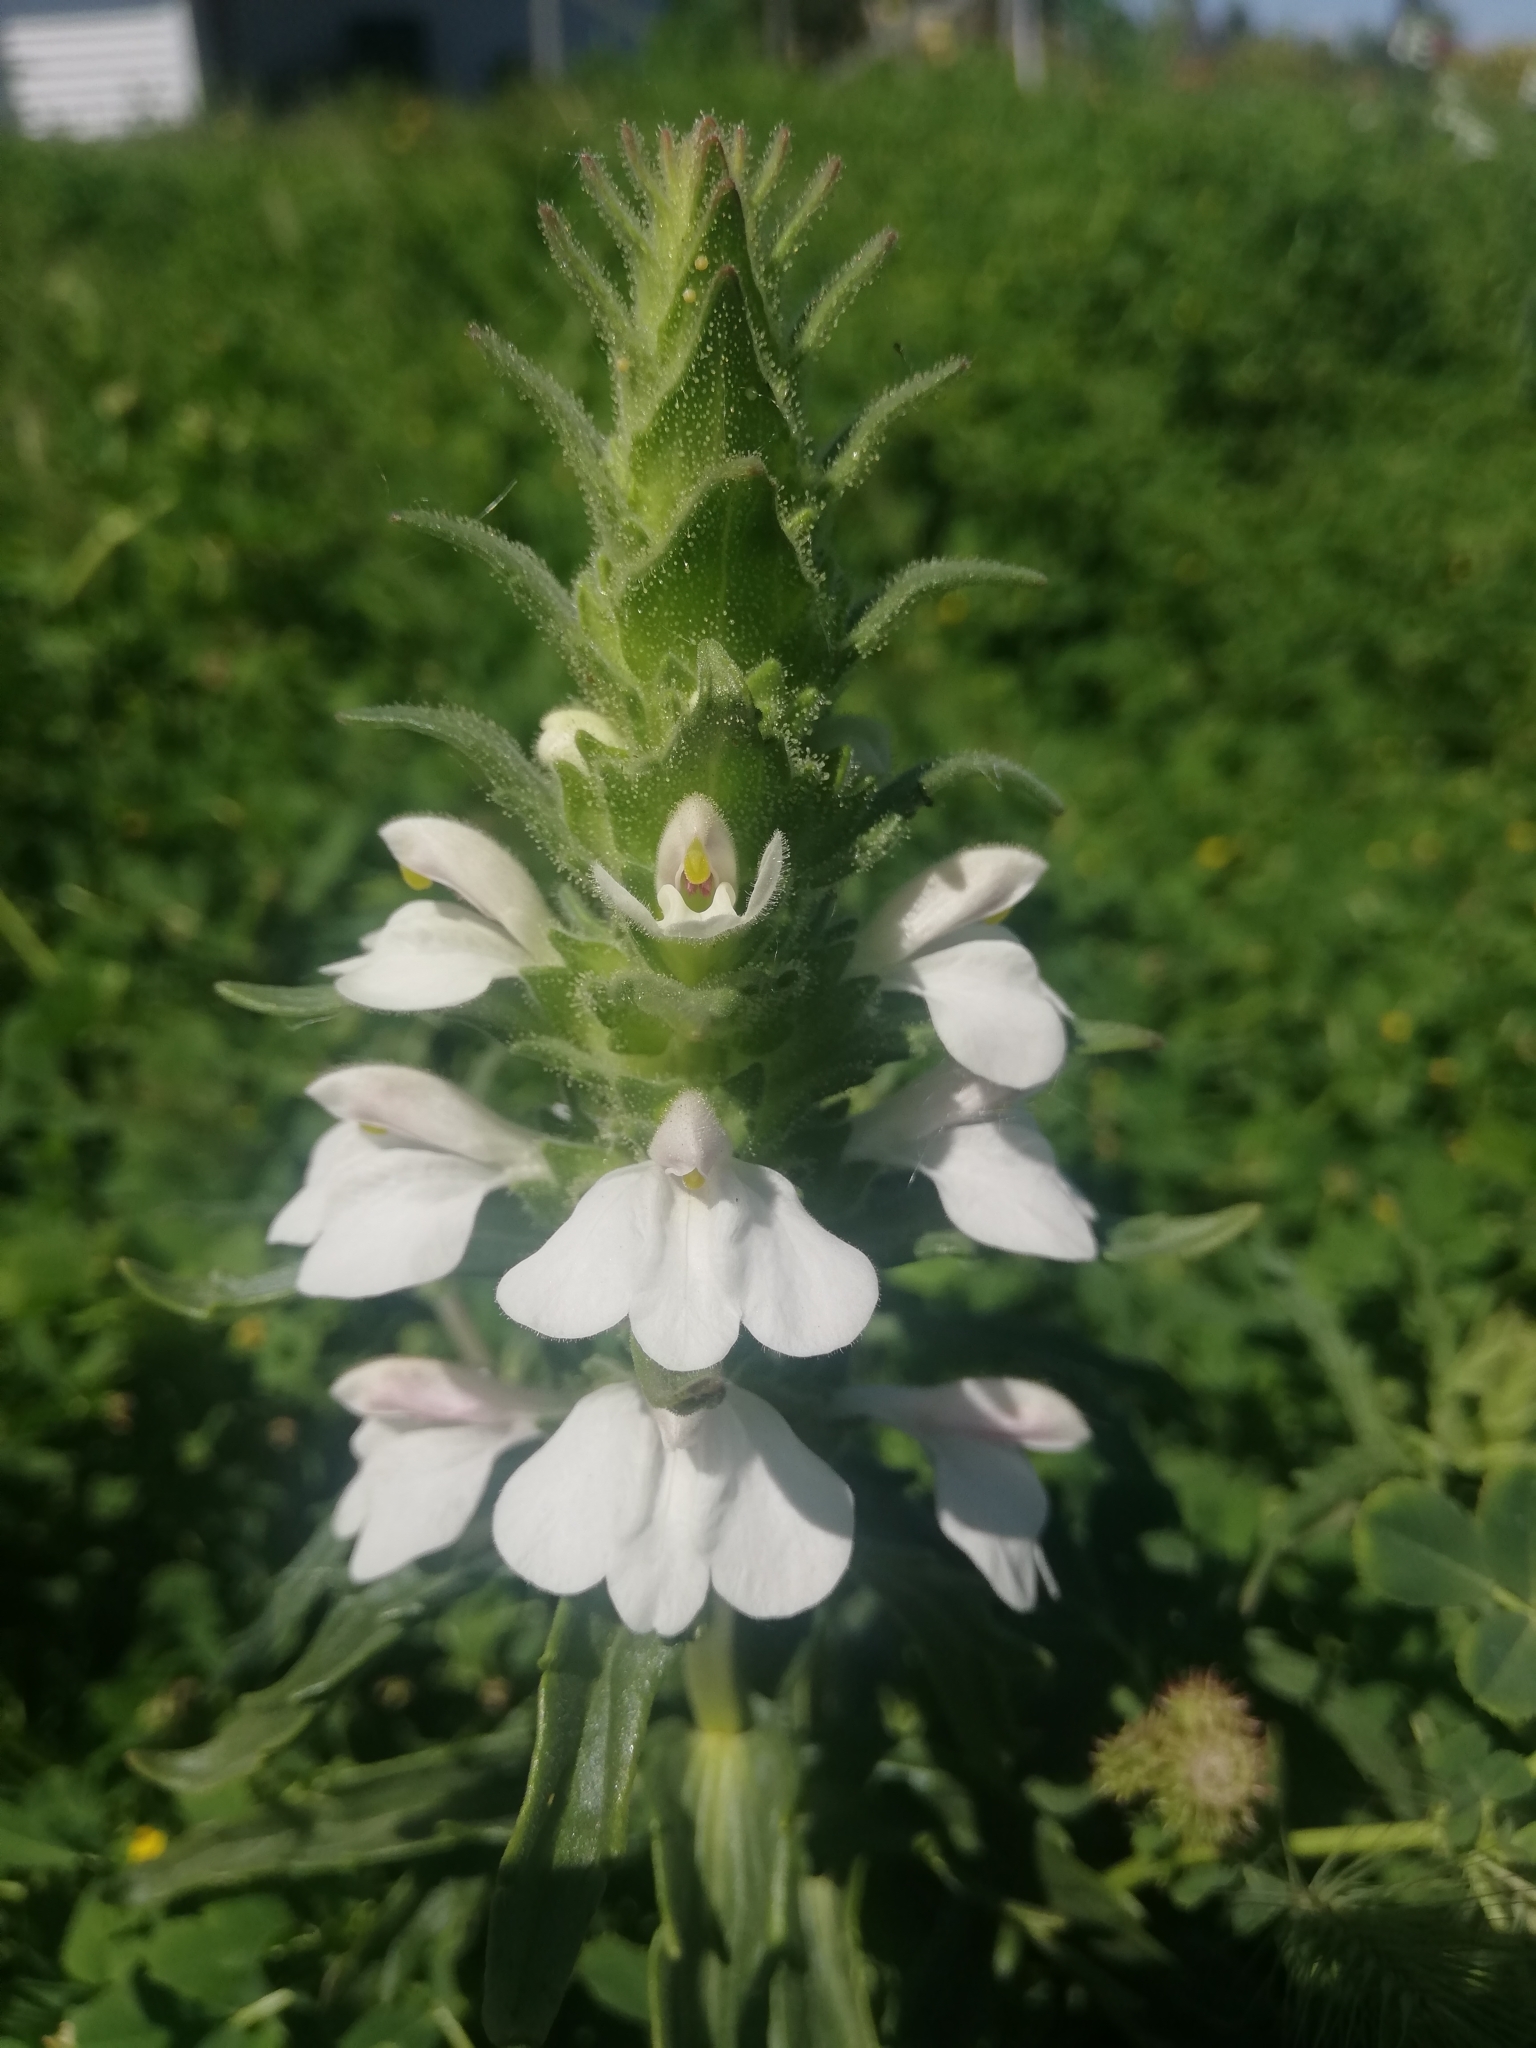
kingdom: Plantae
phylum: Tracheophyta
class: Magnoliopsida
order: Lamiales
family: Orobanchaceae
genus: Bellardia
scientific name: Bellardia trixago
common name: Mediterranean lineseed
